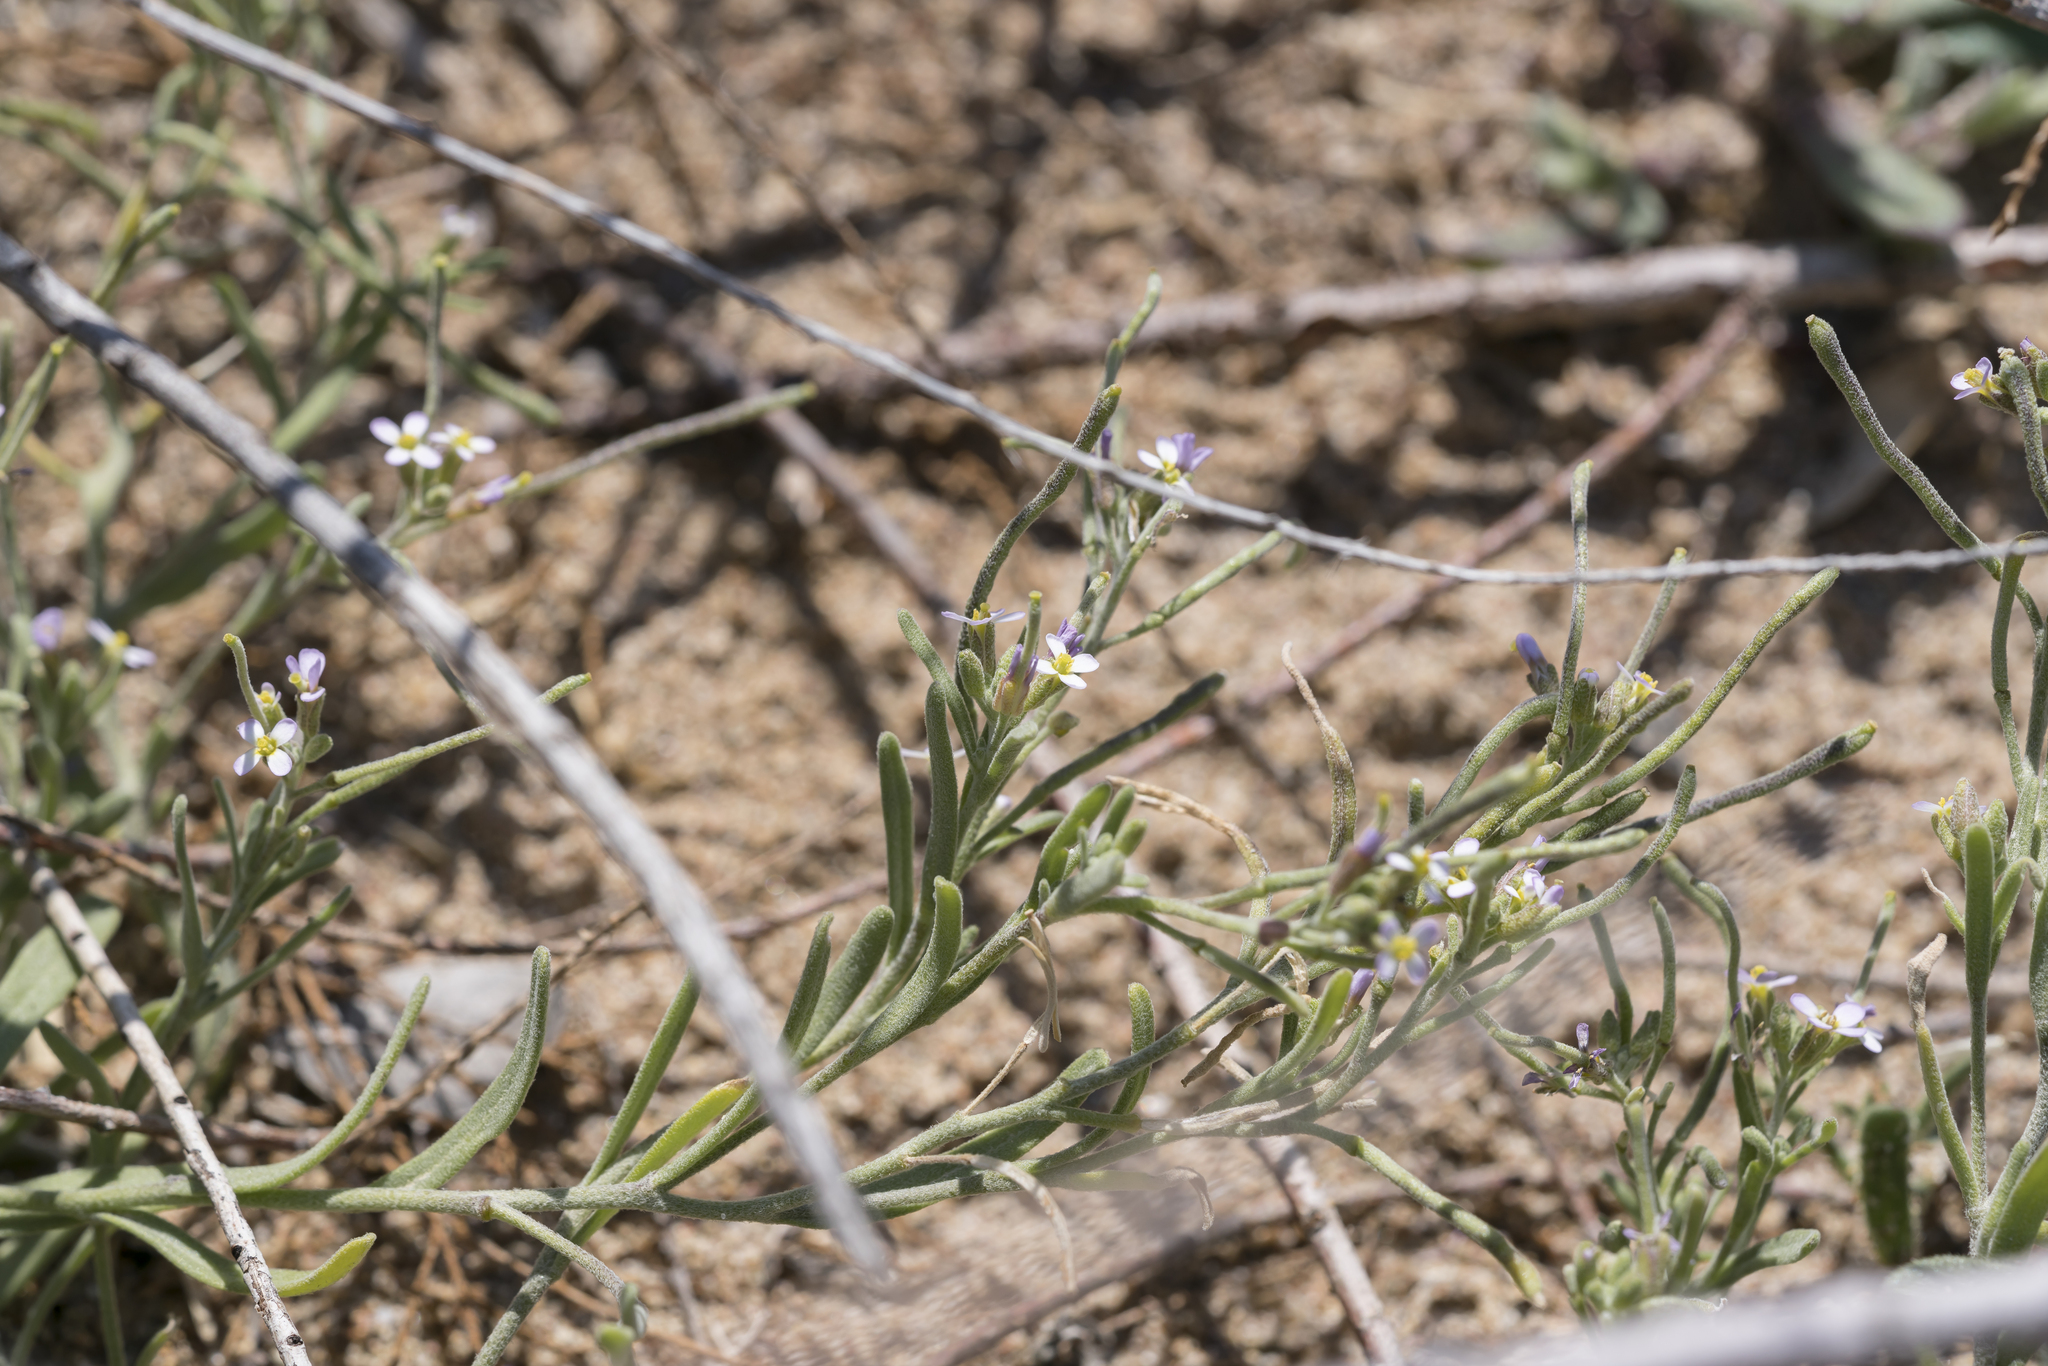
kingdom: Plantae
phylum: Tracheophyta
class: Magnoliopsida
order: Brassicales
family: Brassicaceae
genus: Maresia
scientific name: Maresia nana
